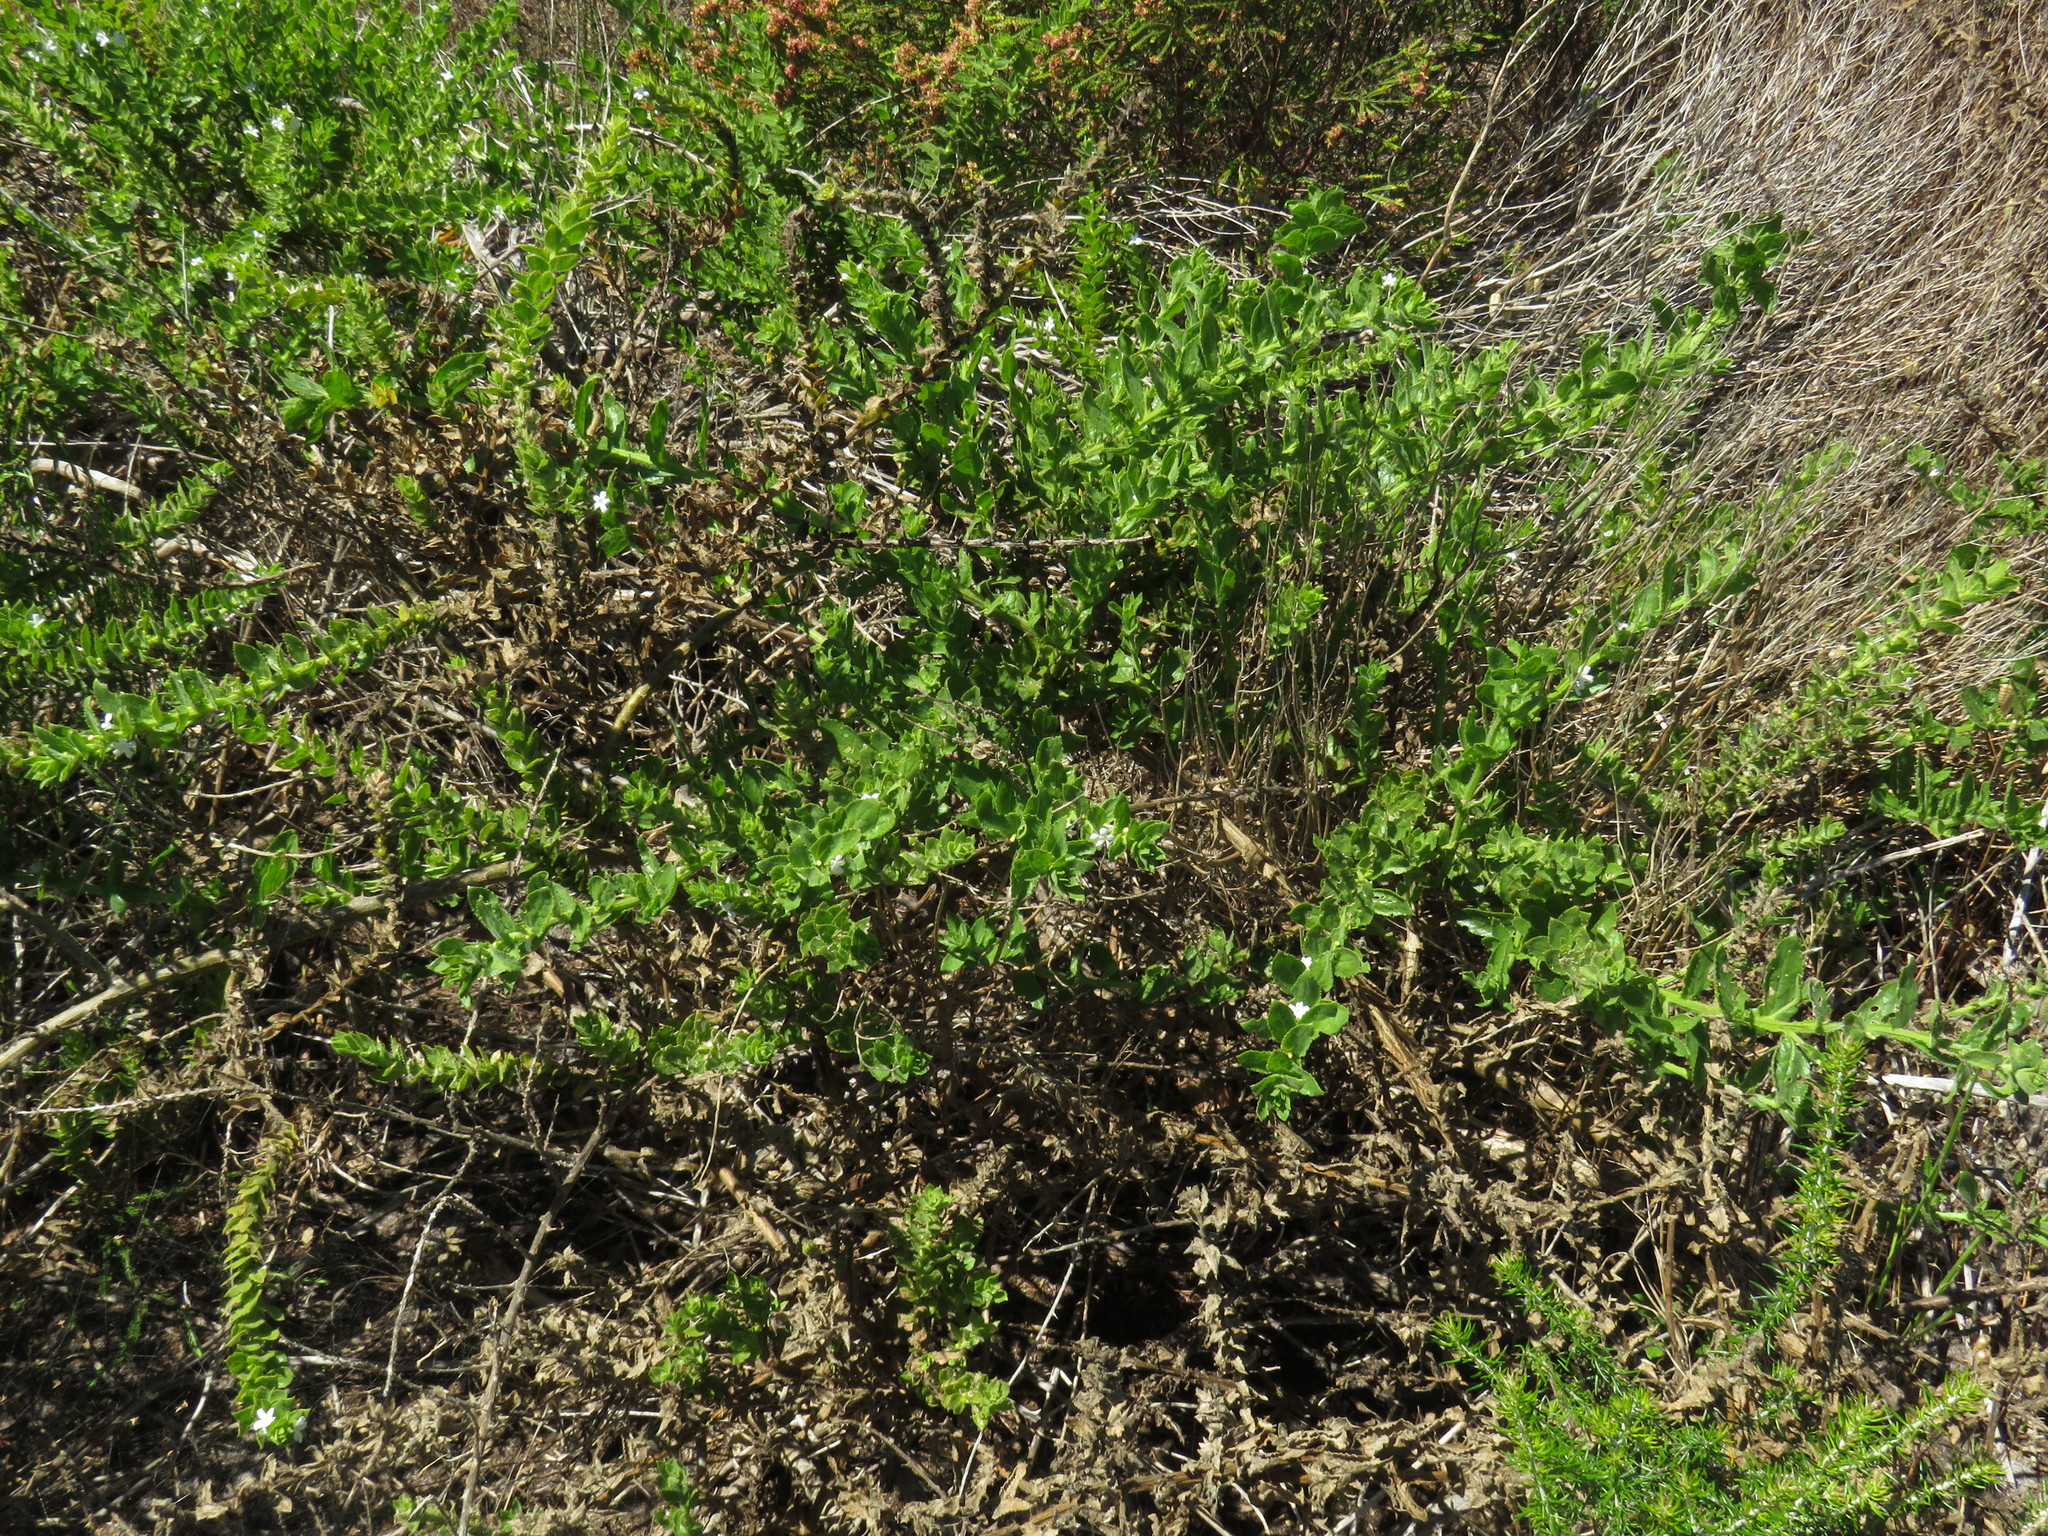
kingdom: Plantae
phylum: Tracheophyta
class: Magnoliopsida
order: Lamiales
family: Scrophulariaceae
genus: Oftia
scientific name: Oftia africana
